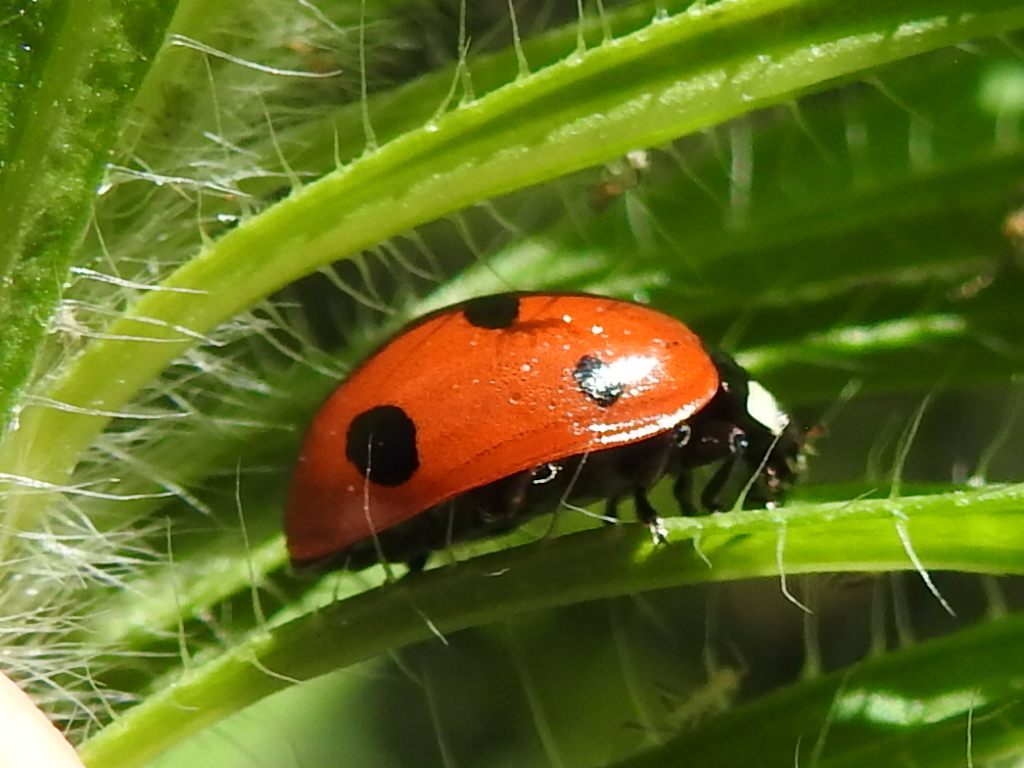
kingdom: Animalia
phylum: Arthropoda
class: Insecta
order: Coleoptera
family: Coccinellidae
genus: Coccinella
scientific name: Coccinella septempunctata
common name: Sevenspotted lady beetle
